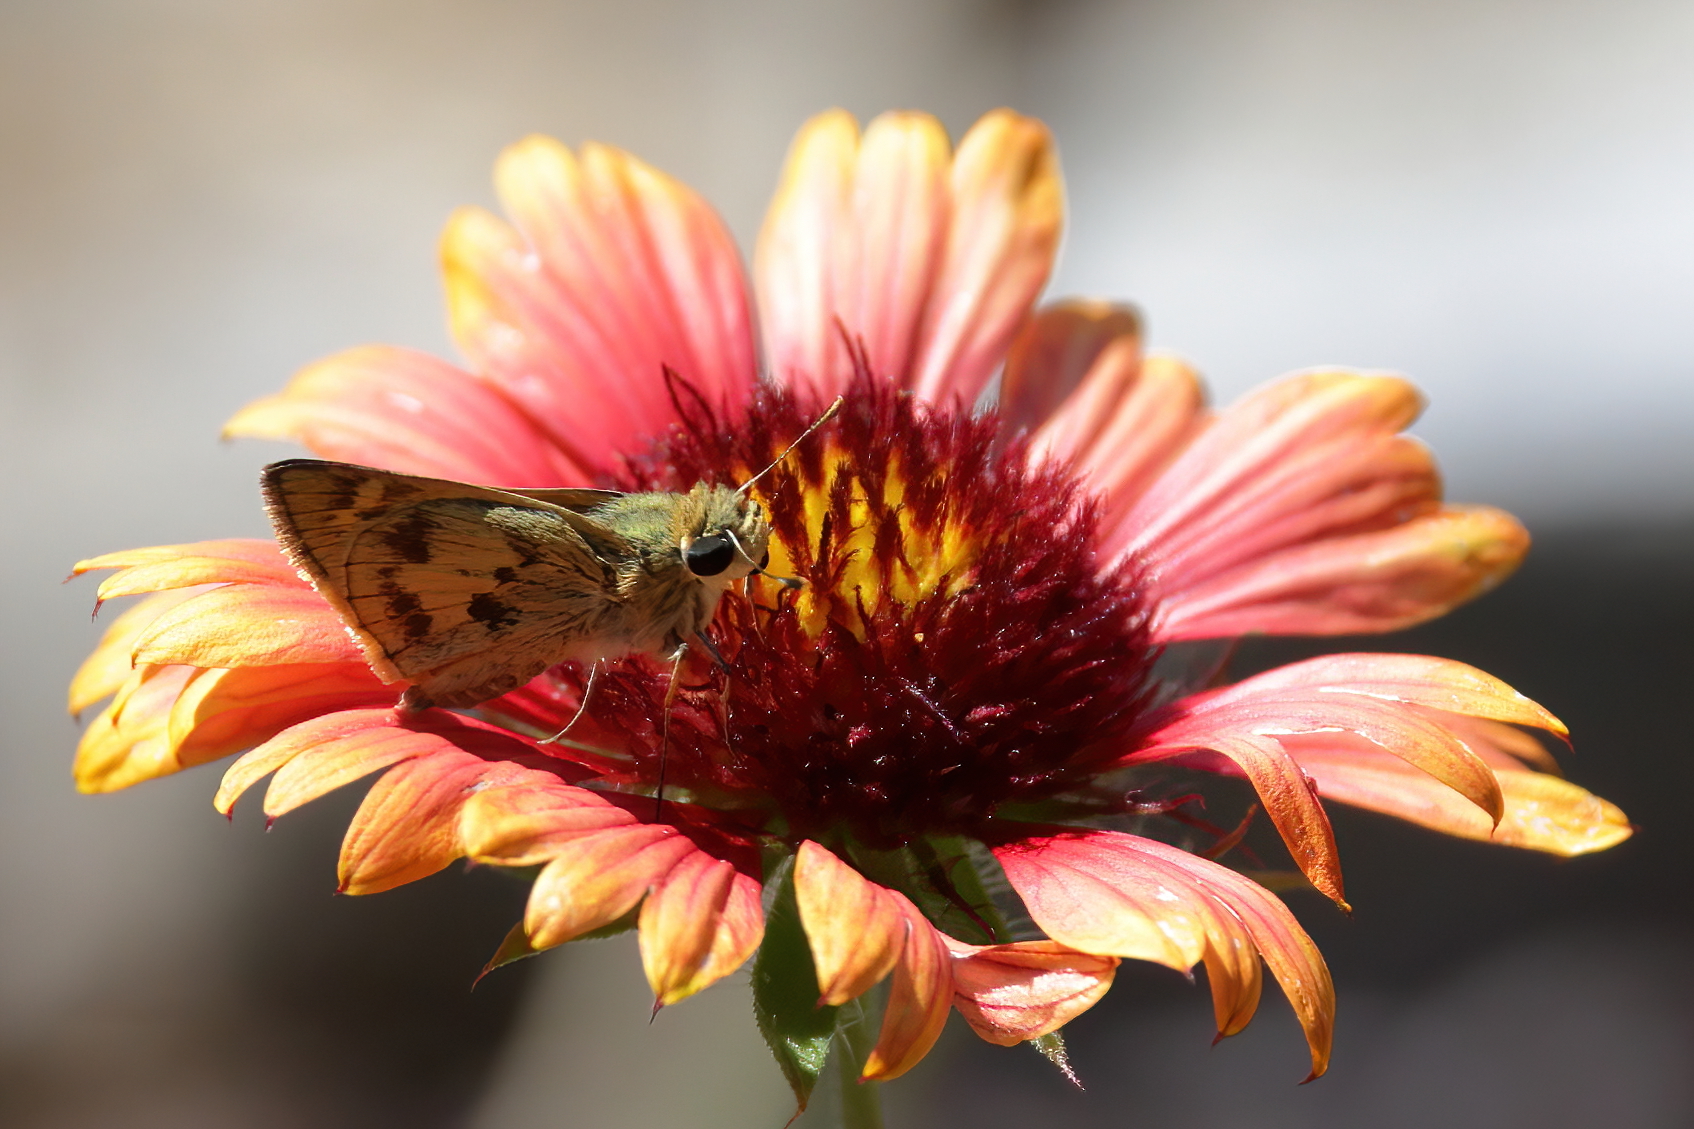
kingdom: Animalia
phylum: Arthropoda
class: Insecta
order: Lepidoptera
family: Hesperiidae
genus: Polites
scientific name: Polites vibex
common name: Whirlabout
